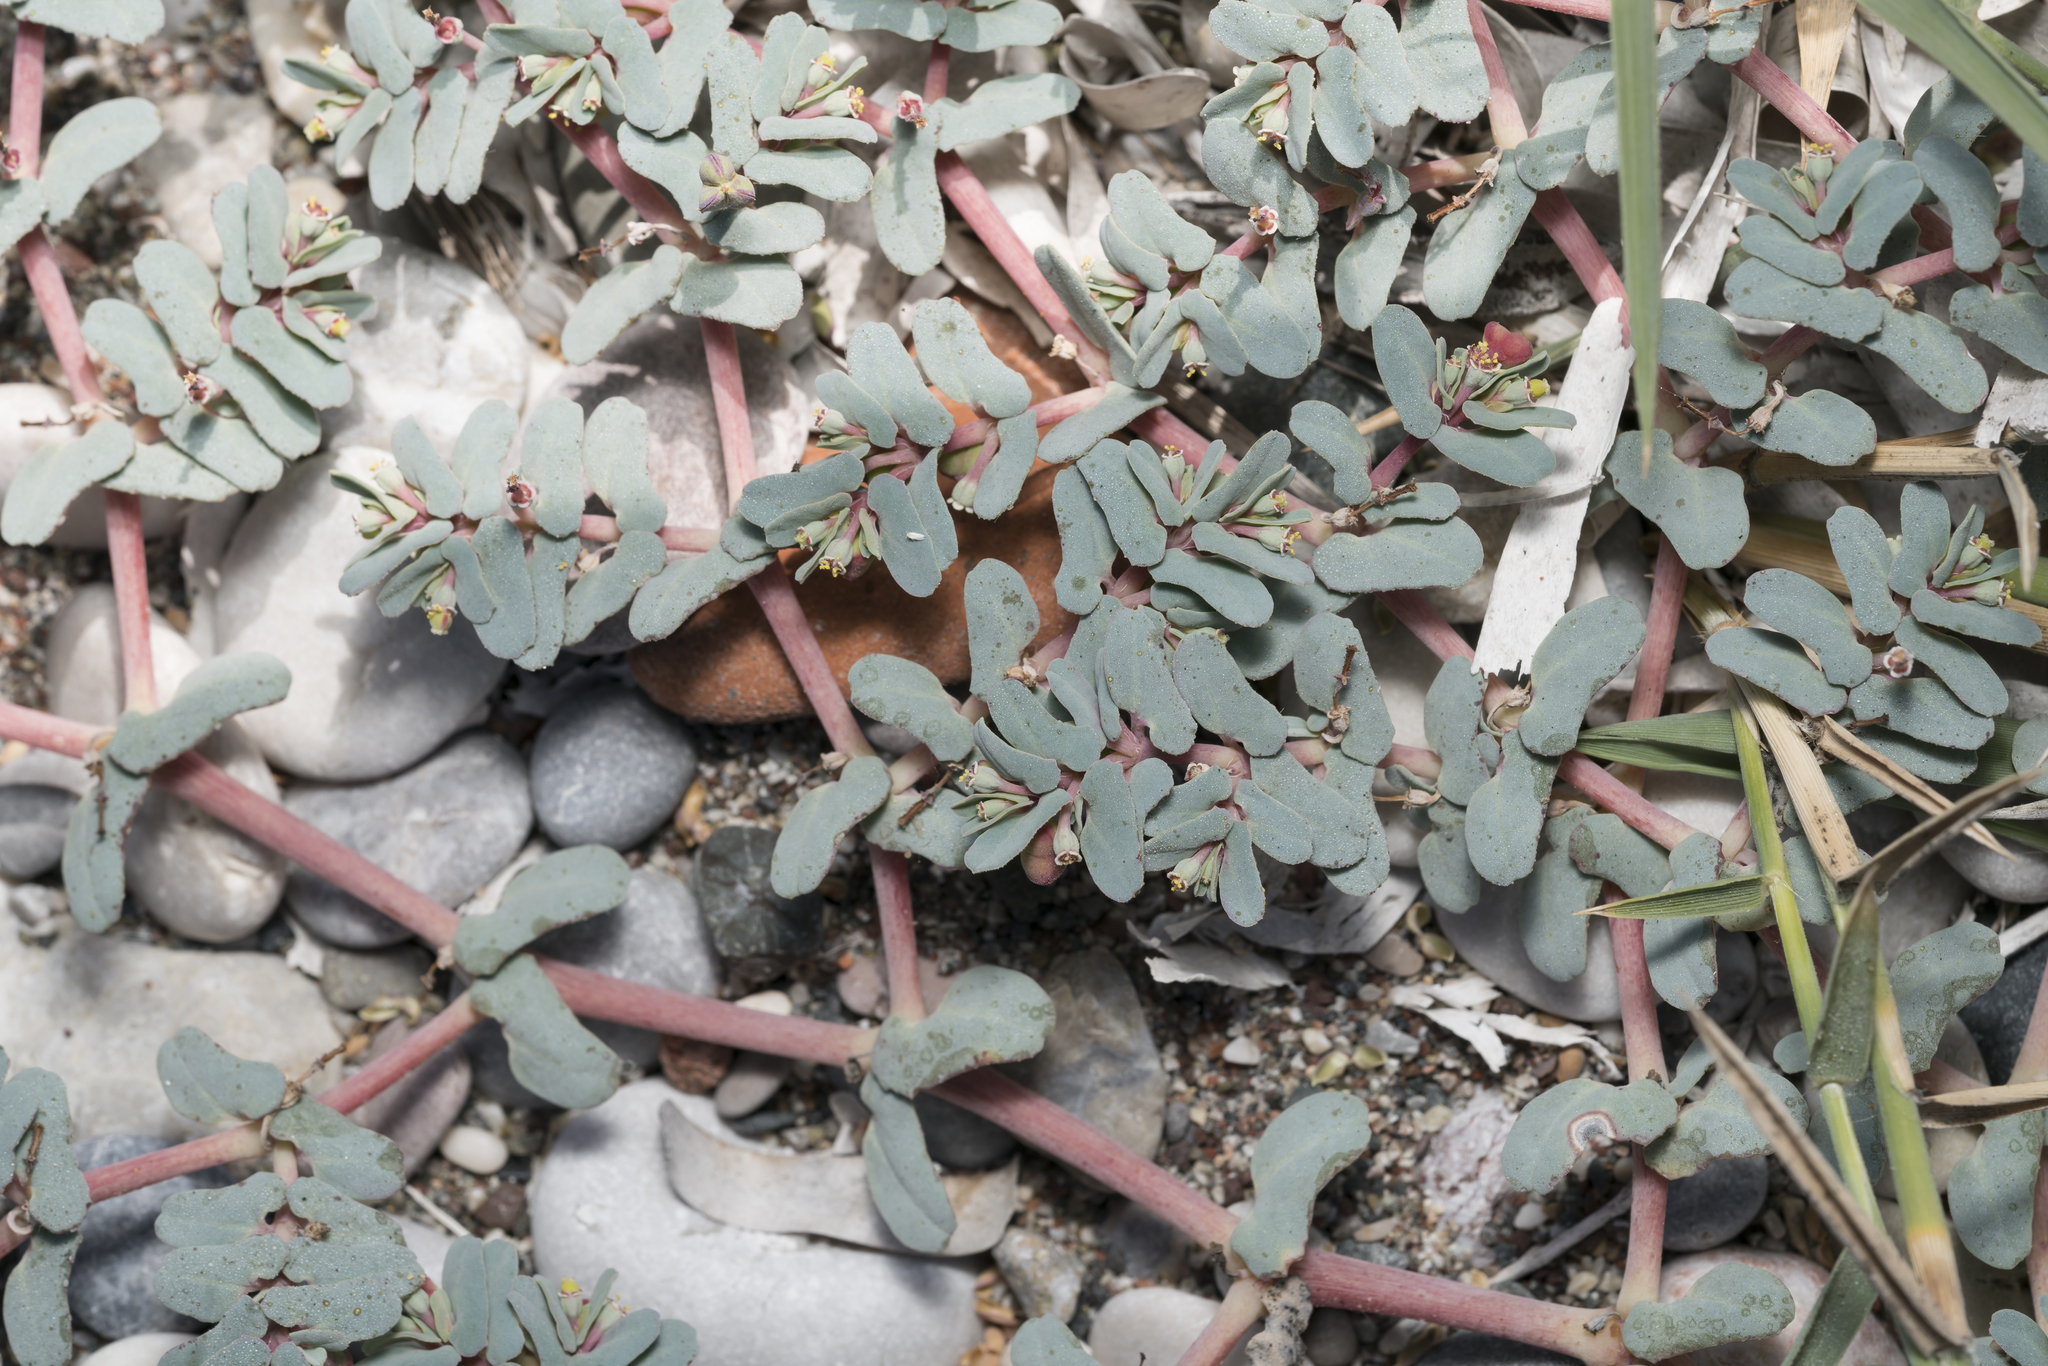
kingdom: Plantae
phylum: Tracheophyta
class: Magnoliopsida
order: Malpighiales
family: Euphorbiaceae
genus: Euphorbia
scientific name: Euphorbia peplis
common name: Purple spurge
